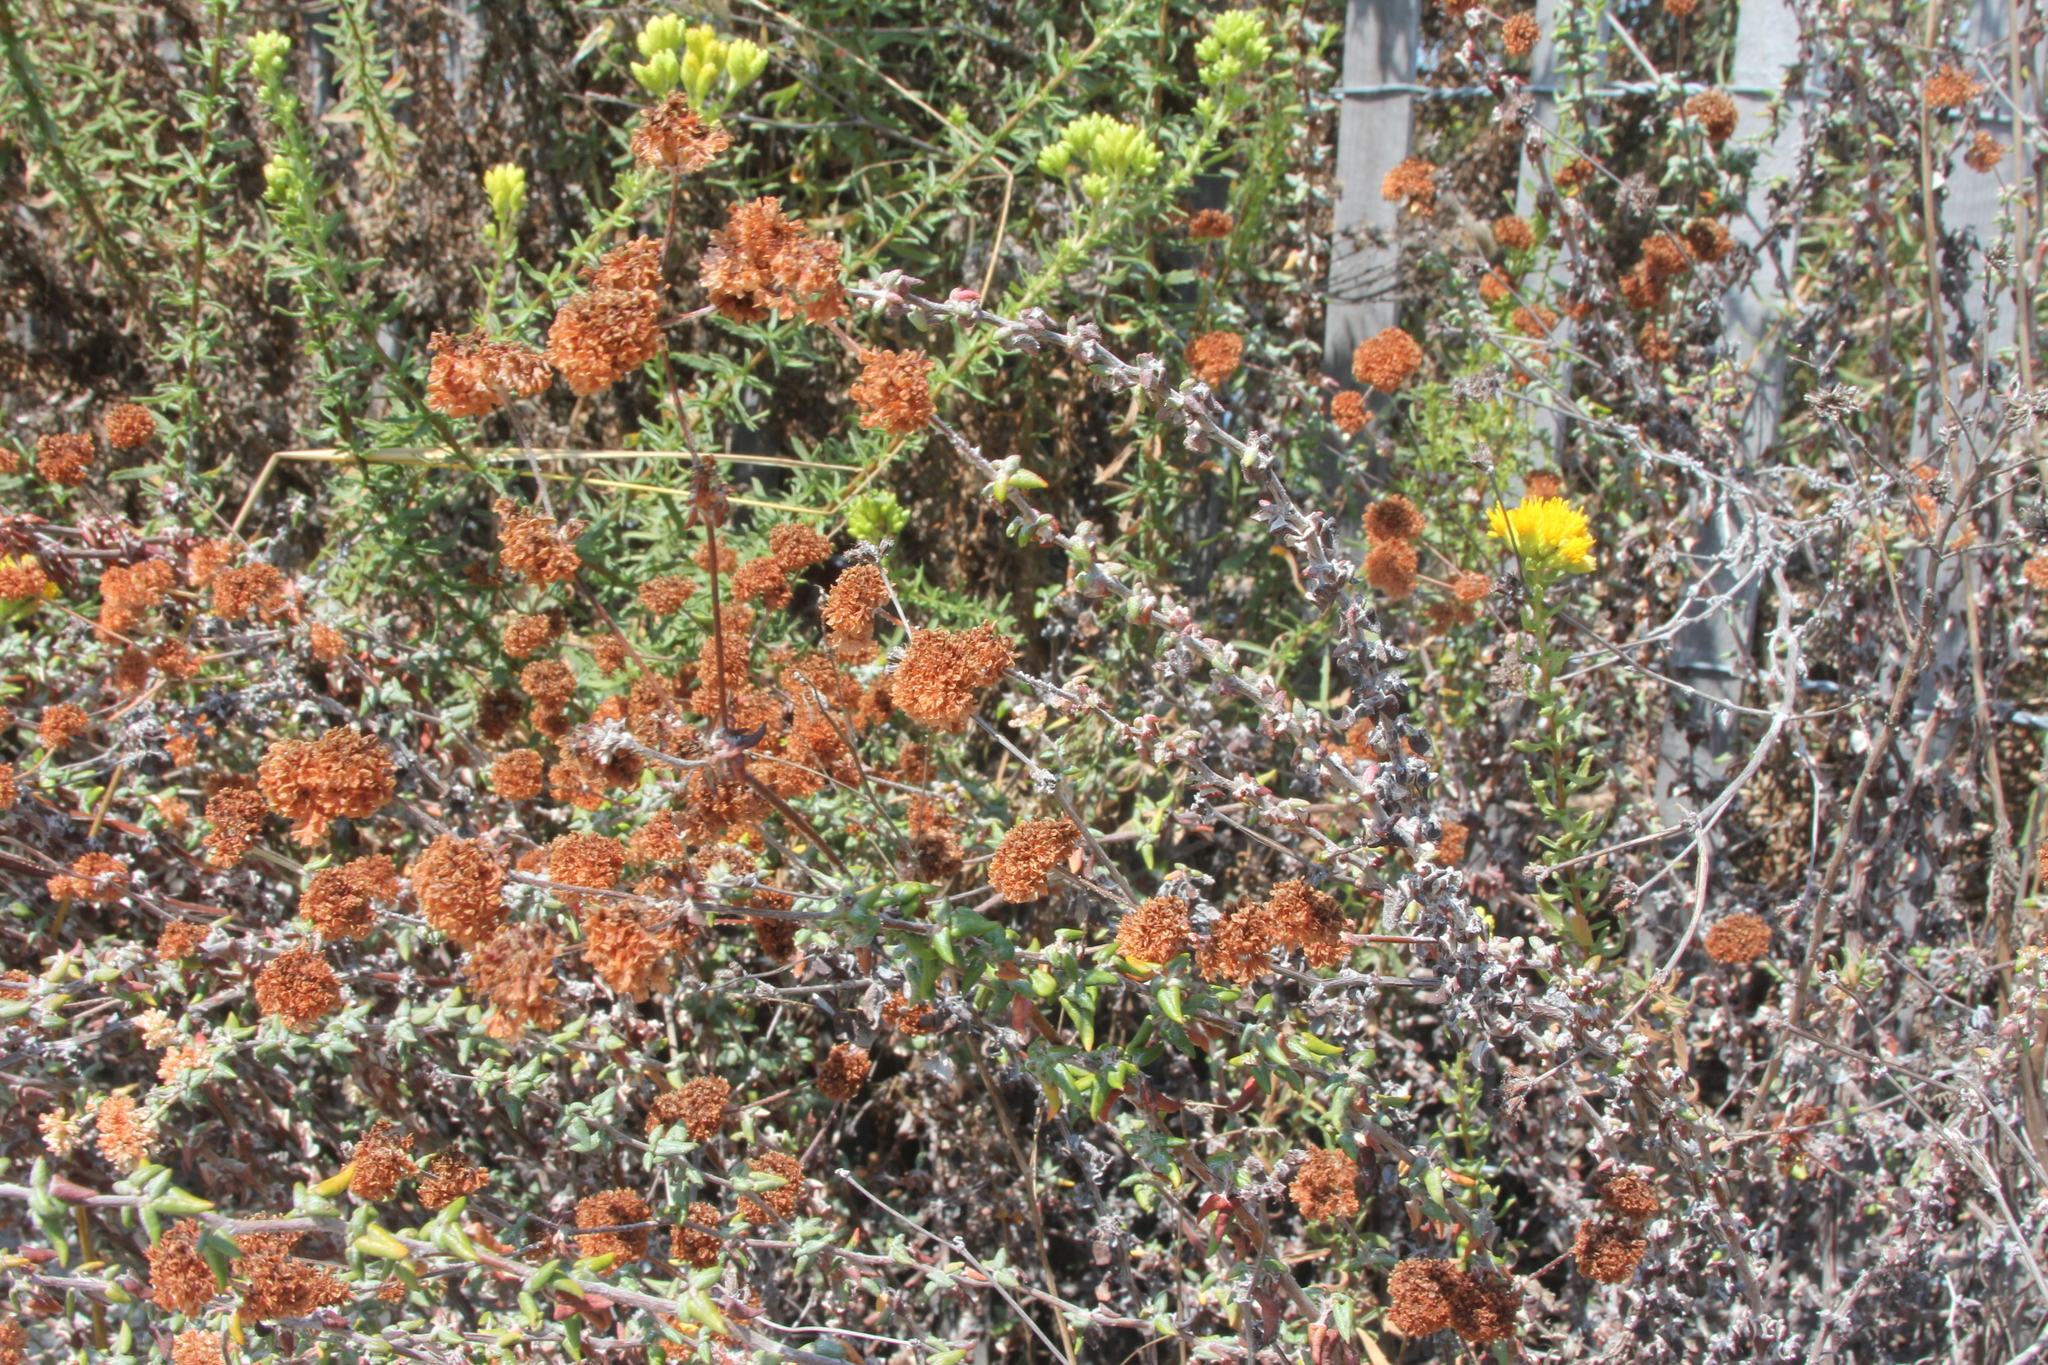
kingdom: Plantae
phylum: Tracheophyta
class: Magnoliopsida
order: Caryophyllales
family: Polygonaceae
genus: Eriogonum
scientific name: Eriogonum parvifolium
